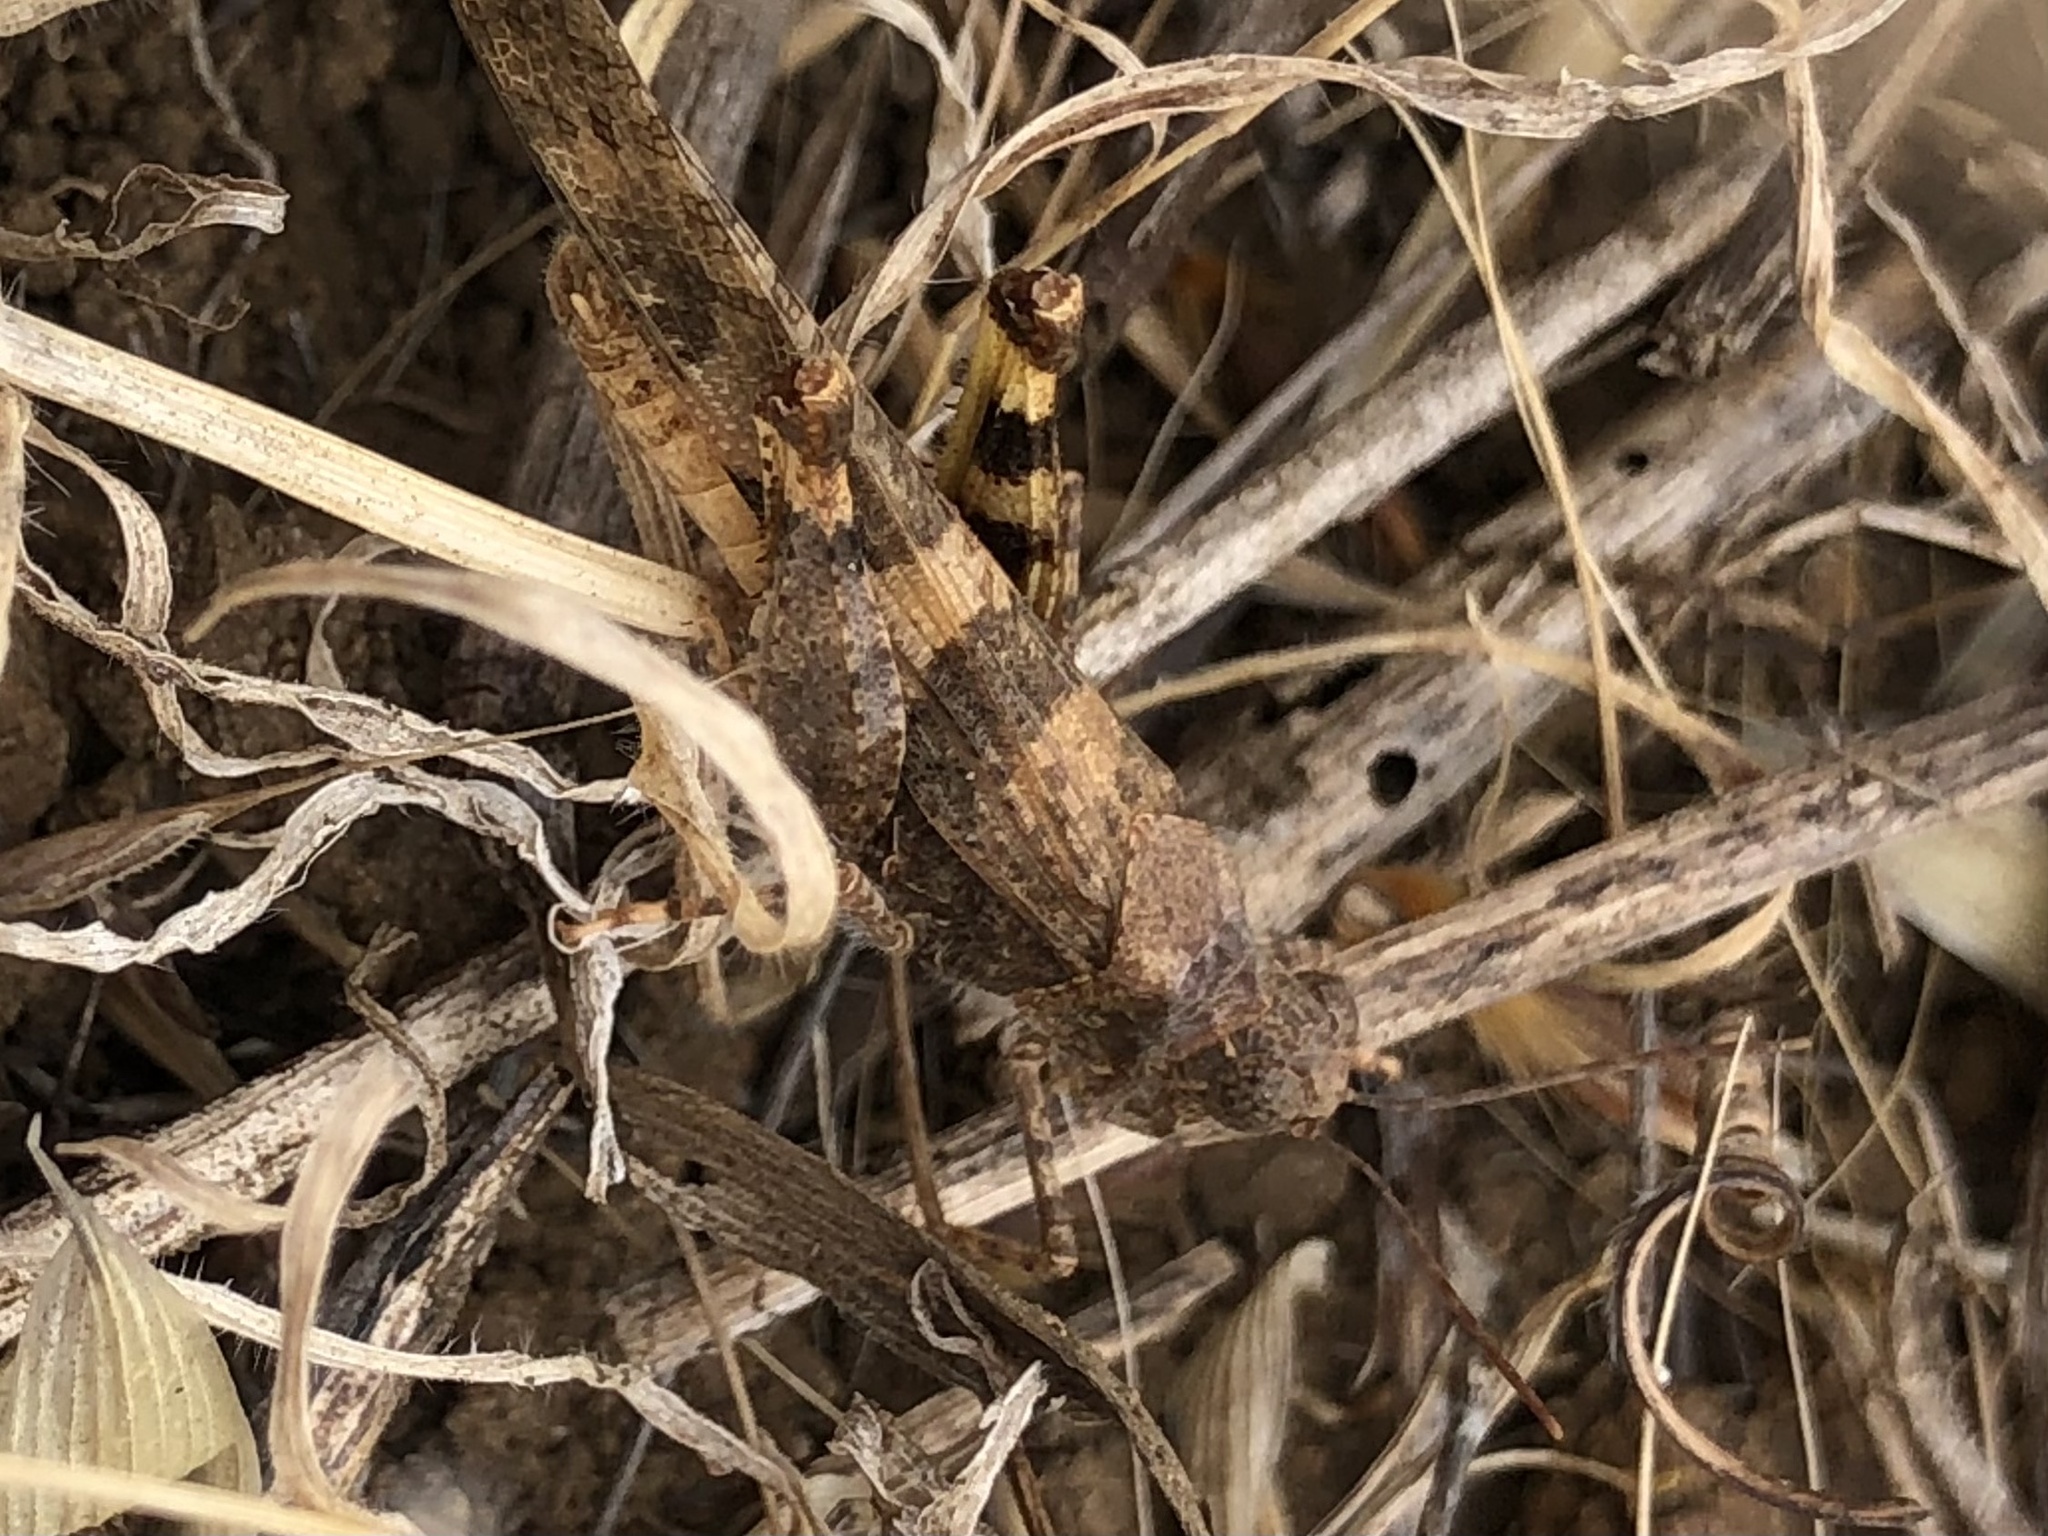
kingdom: Animalia
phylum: Arthropoda
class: Insecta
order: Orthoptera
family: Acrididae
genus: Trimerotropis
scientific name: Trimerotropis fontana
